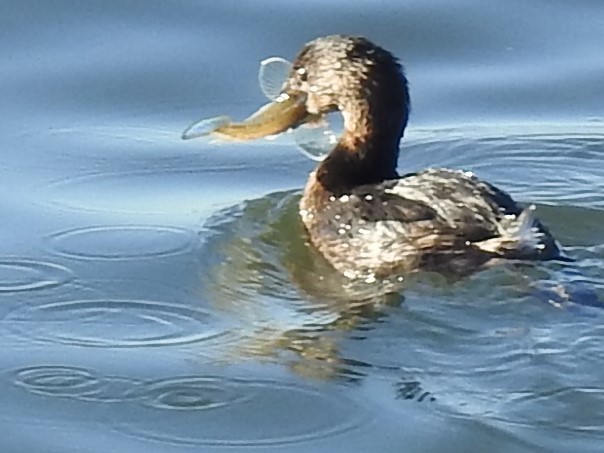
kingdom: Animalia
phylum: Chordata
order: Perciformes
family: Gobiidae
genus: Acanthogobius
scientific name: Acanthogobius flavimanus
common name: Yellowfin goby
